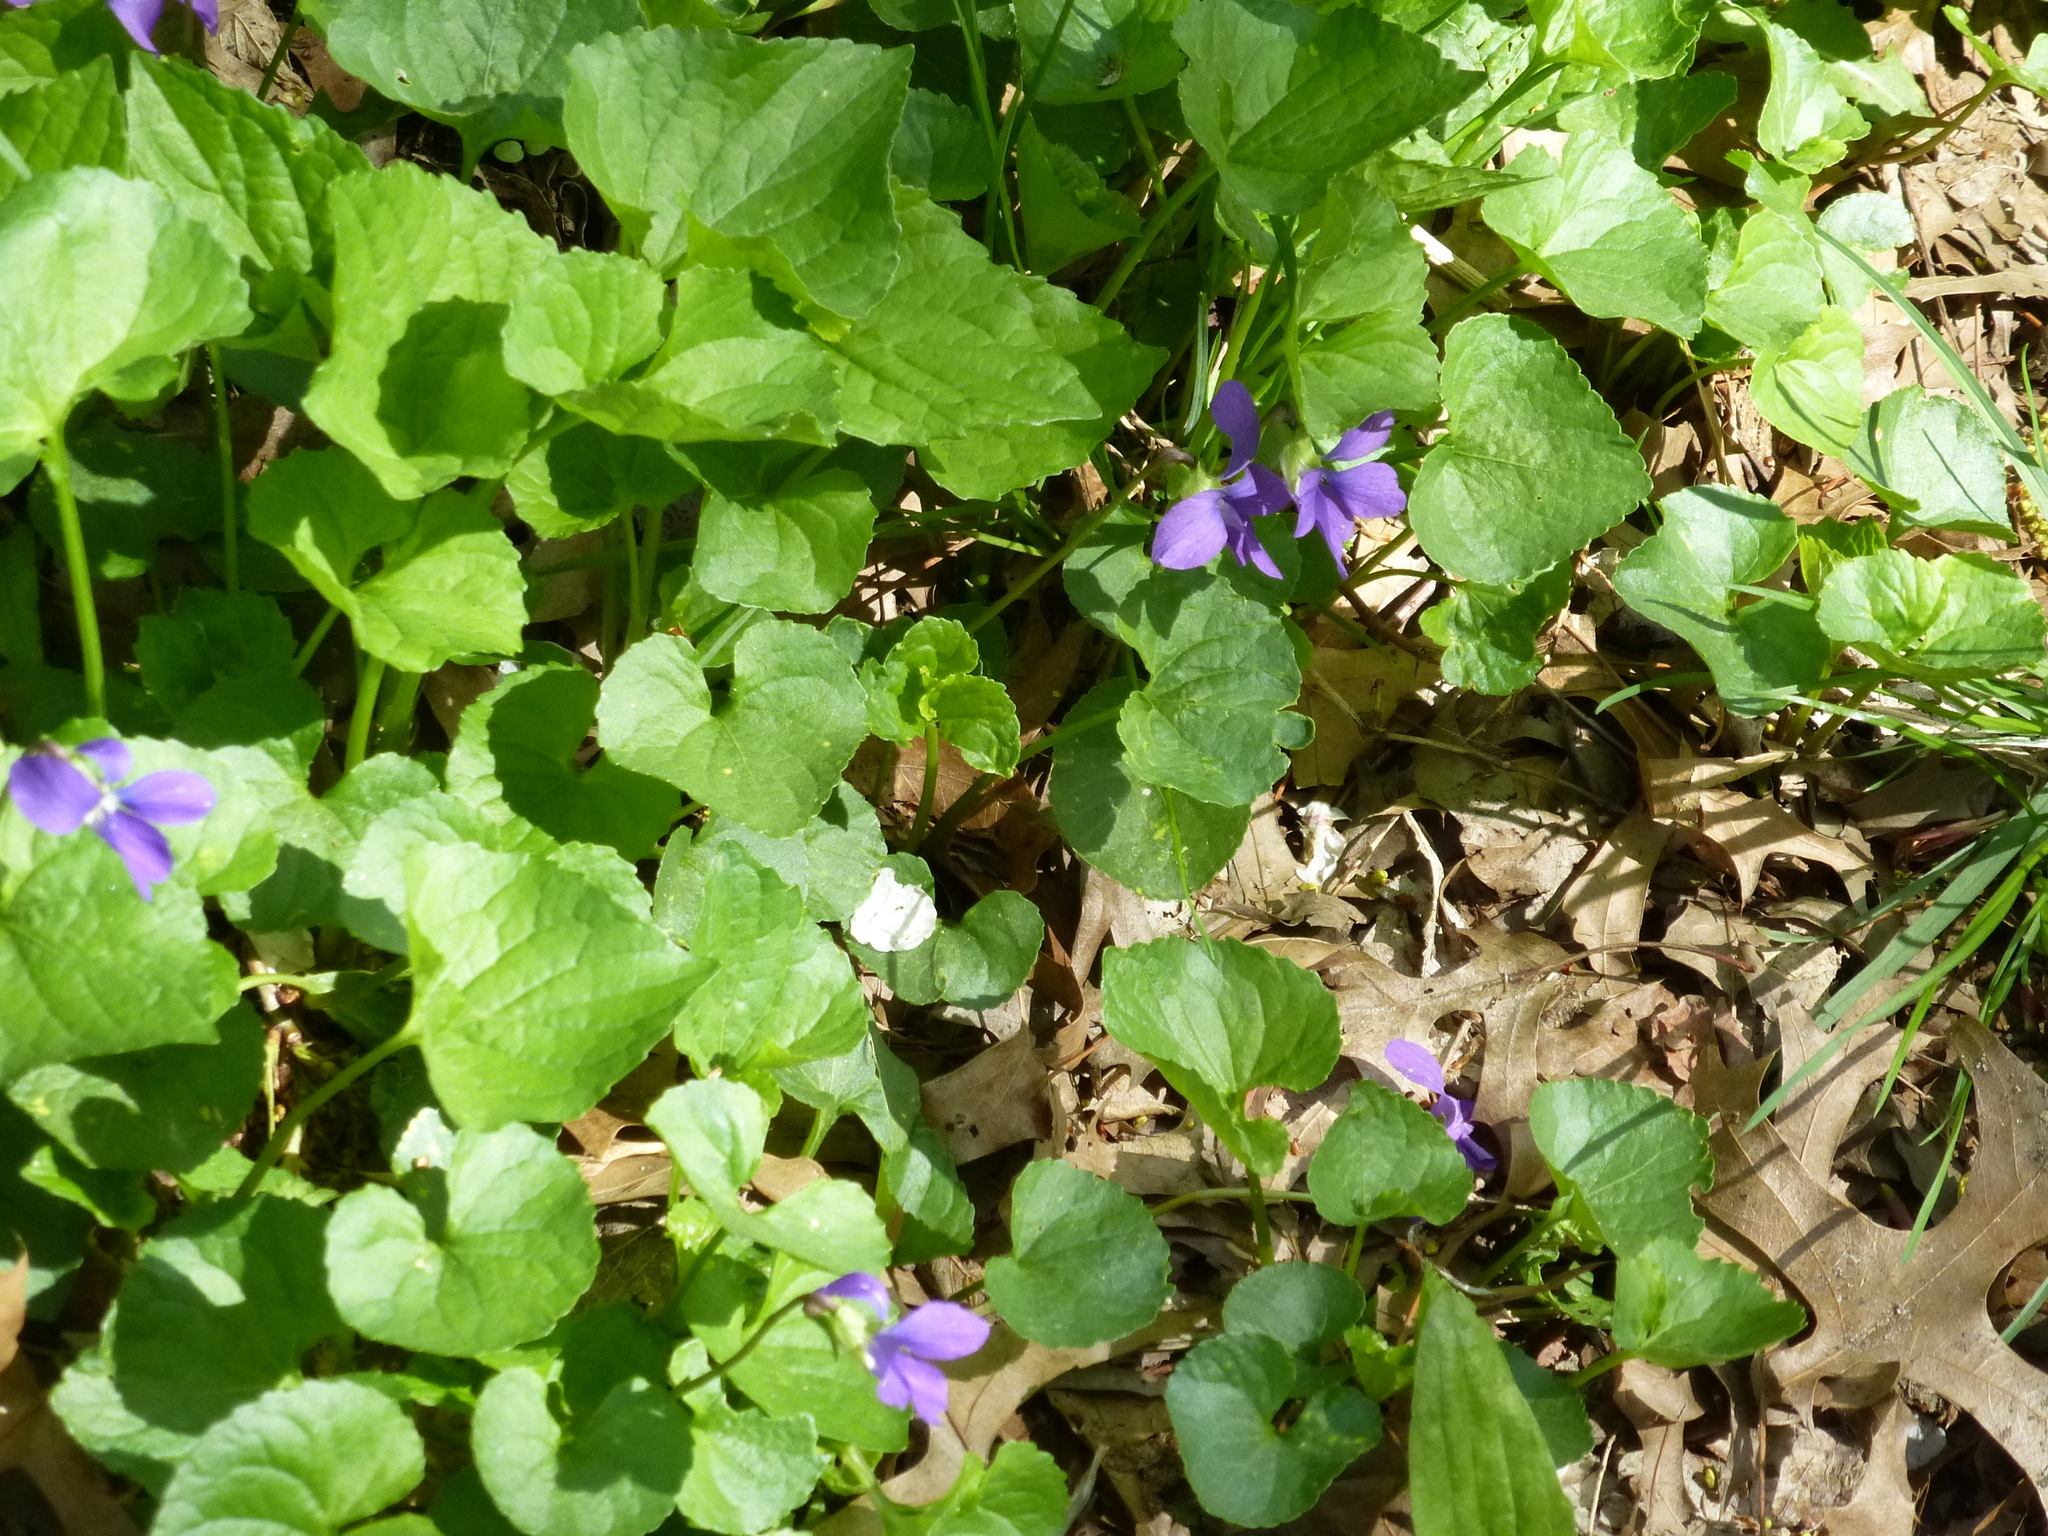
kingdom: Plantae
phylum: Tracheophyta
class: Magnoliopsida
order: Malpighiales
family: Violaceae
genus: Viola
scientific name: Viola sororia
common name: Dooryard violet
